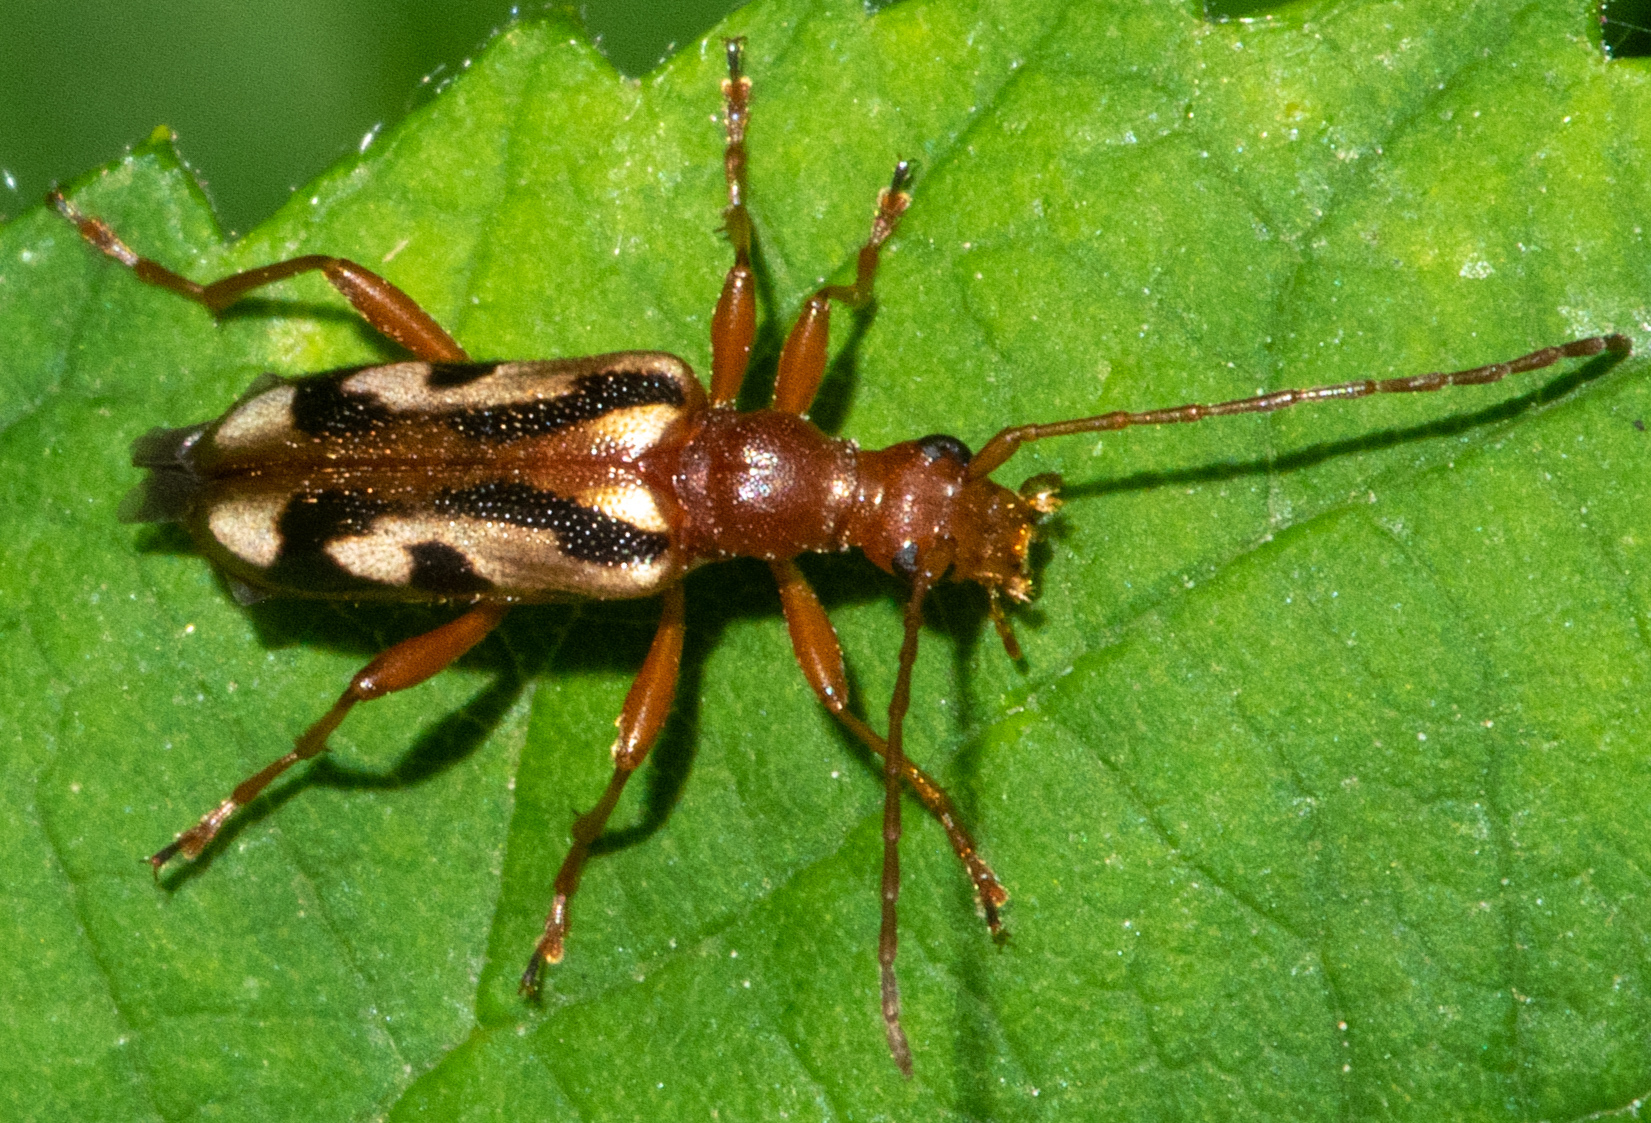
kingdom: Animalia
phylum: Arthropoda
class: Insecta
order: Coleoptera
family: Cerambycidae
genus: Pidonia
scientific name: Pidonia scripta
